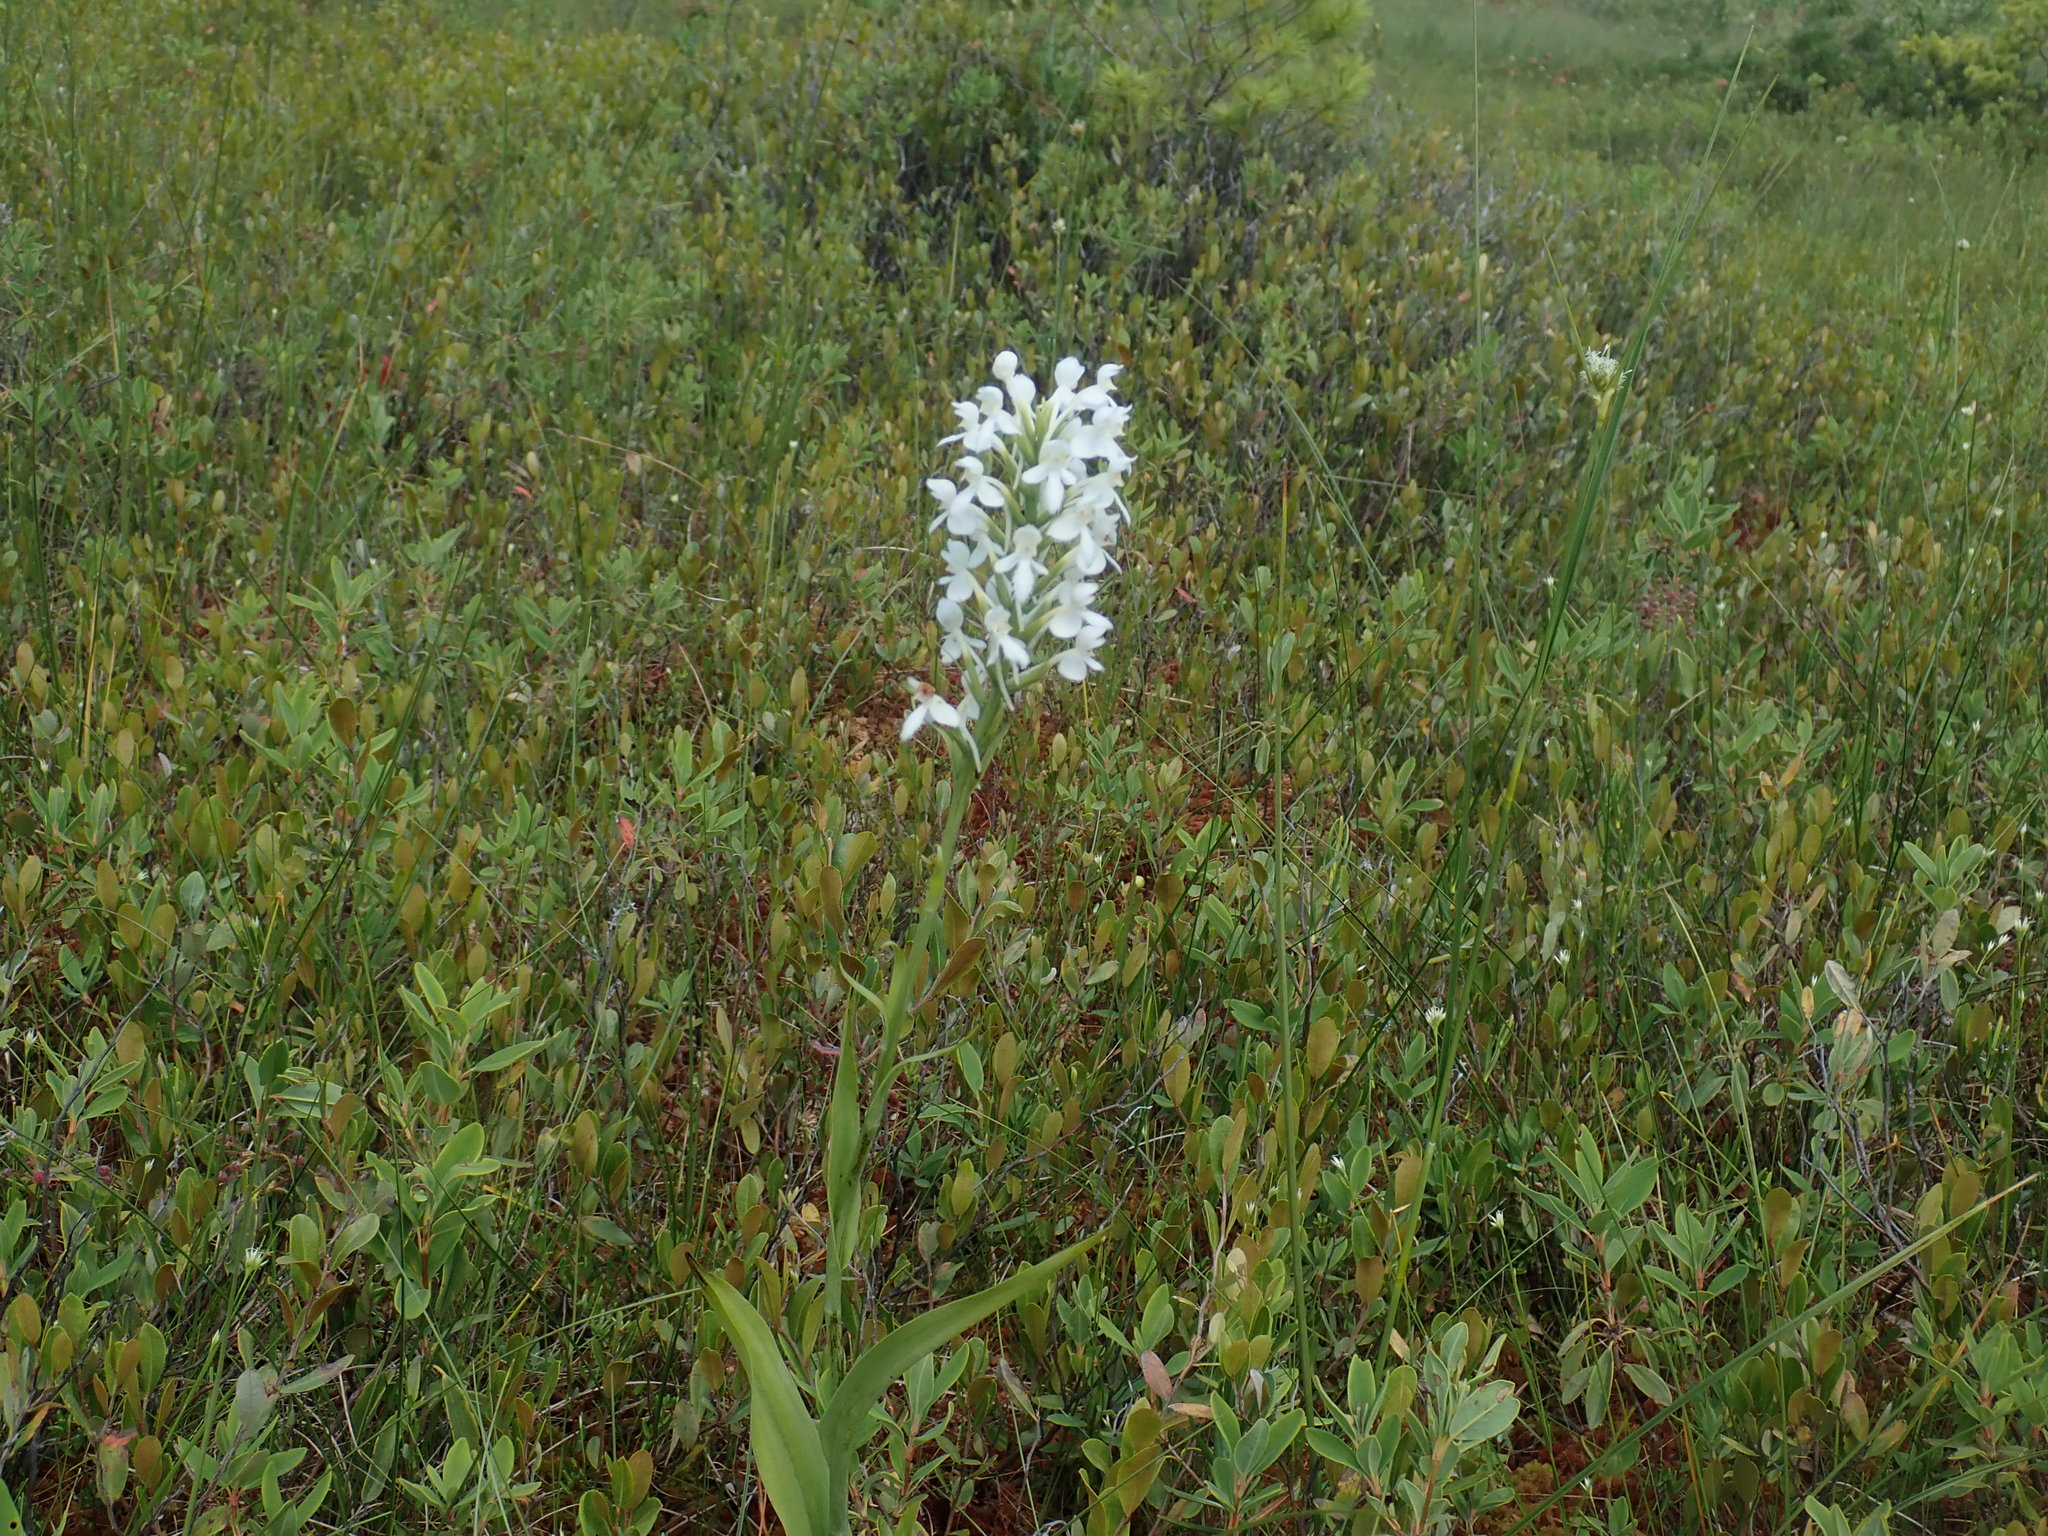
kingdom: Plantae
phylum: Tracheophyta
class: Liliopsida
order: Asparagales
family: Orchidaceae
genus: Platanthera
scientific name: Platanthera blephariglottis
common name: White fringed orchid
